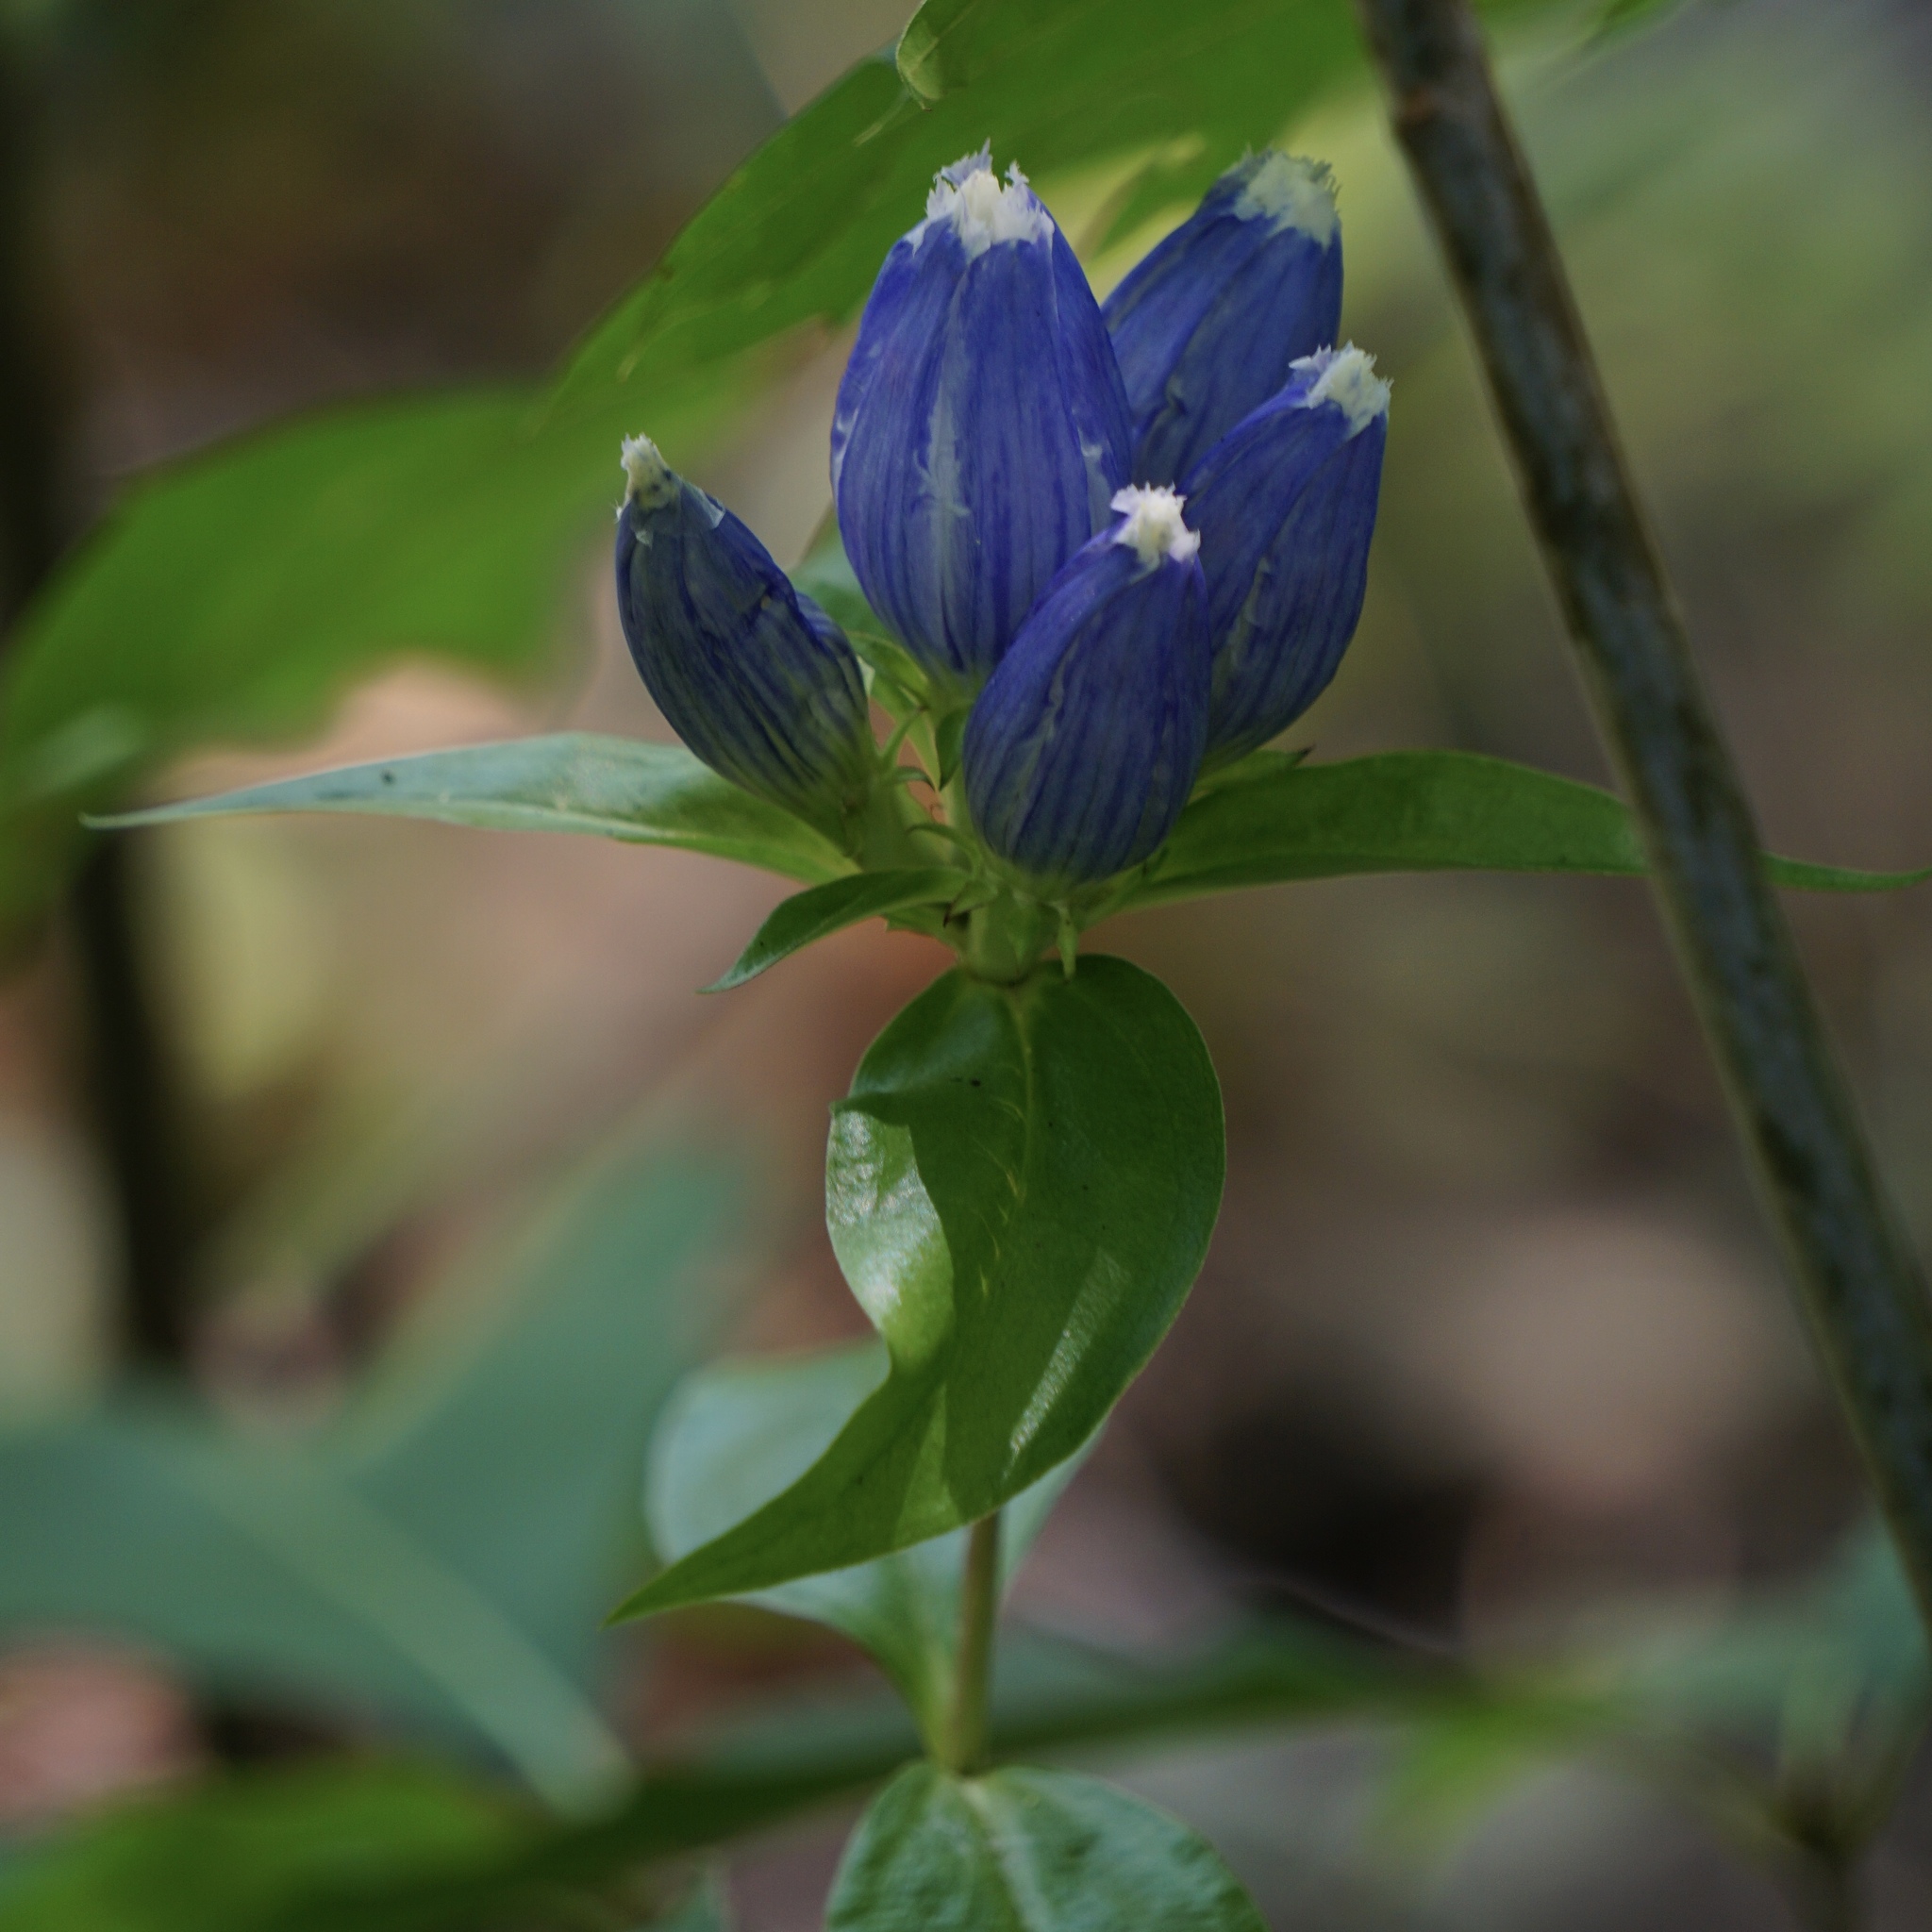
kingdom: Plantae
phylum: Tracheophyta
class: Magnoliopsida
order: Gentianales
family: Gentianaceae
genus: Gentiana
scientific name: Gentiana andrewsii
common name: Bottle gentian
